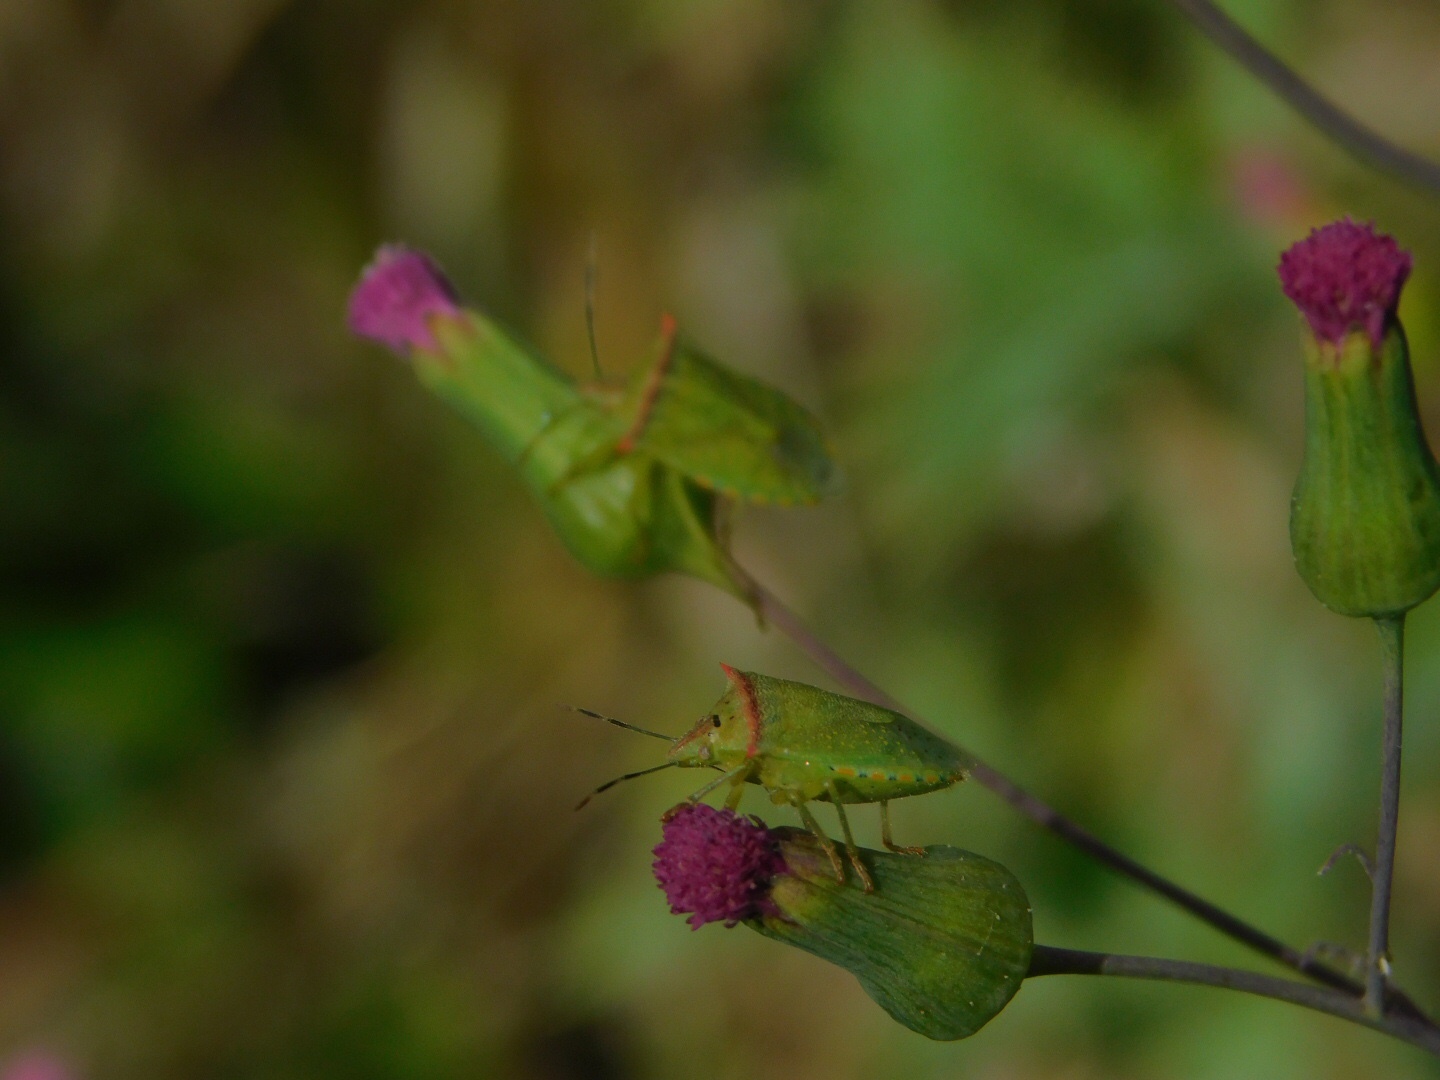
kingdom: Animalia
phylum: Arthropoda
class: Insecta
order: Hemiptera
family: Pentatomidae
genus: Thyanta
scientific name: Thyanta perditor
